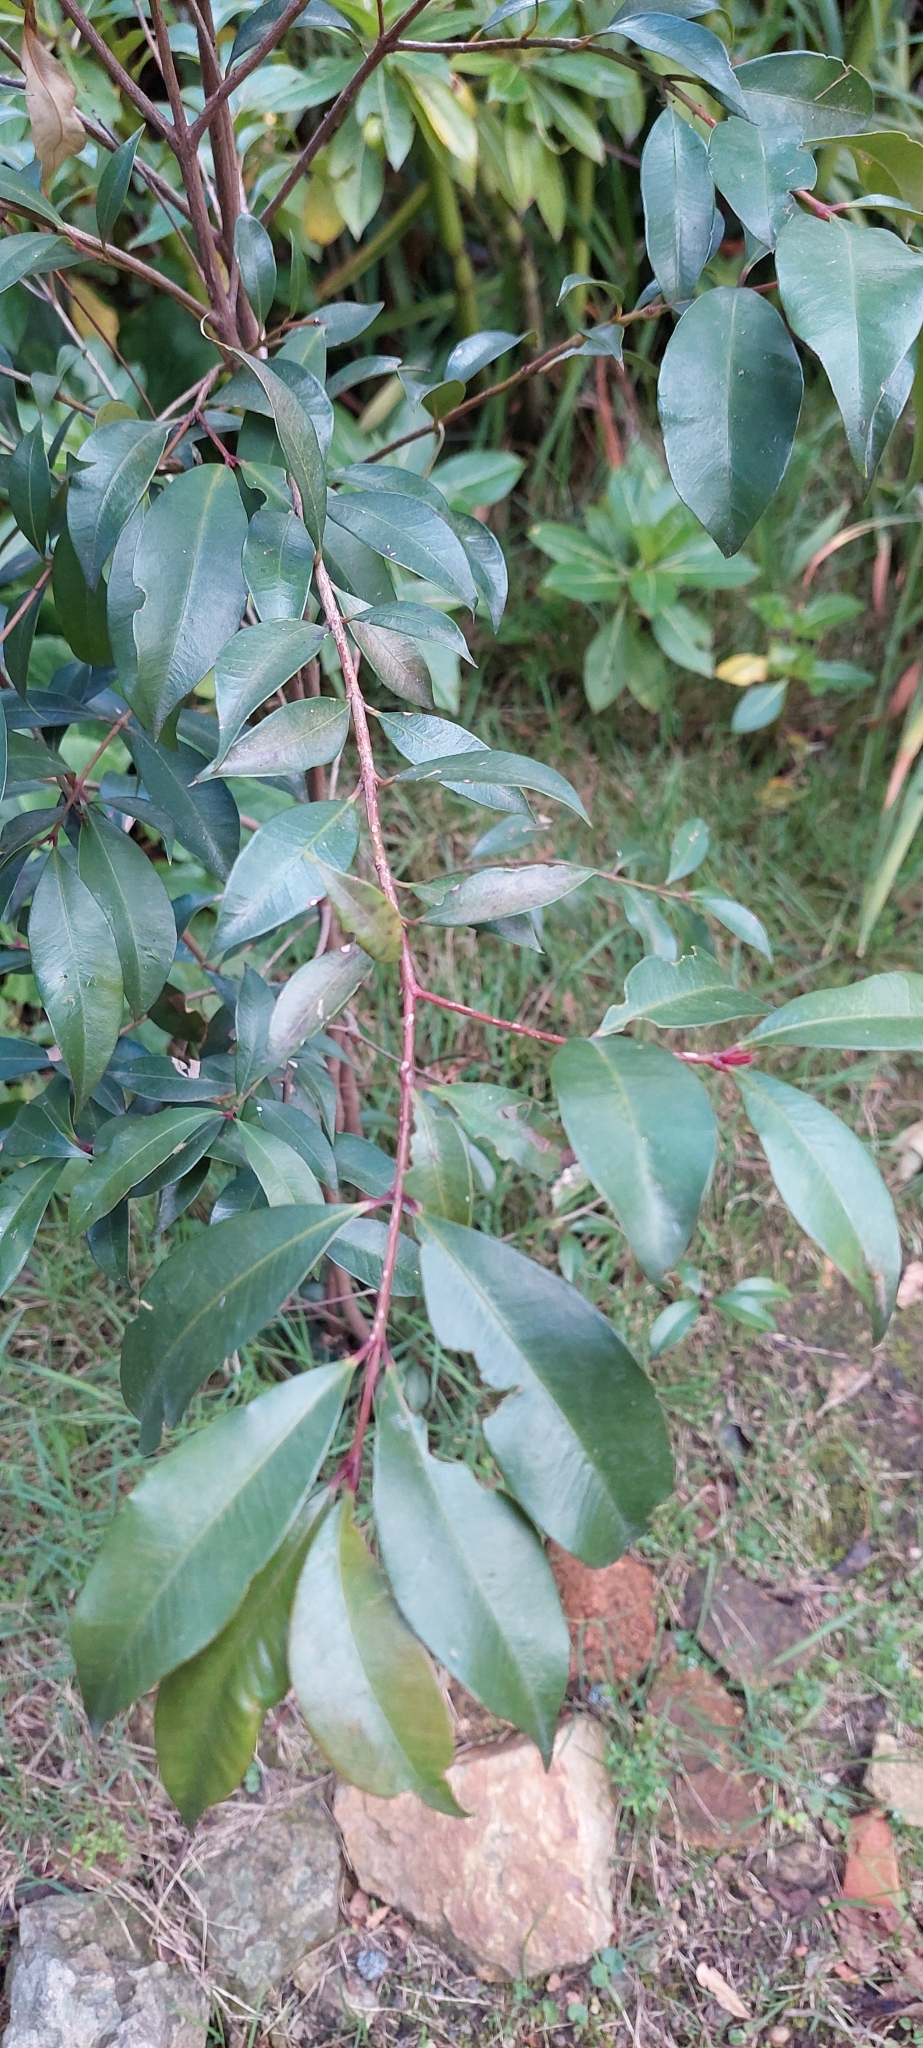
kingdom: Plantae
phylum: Tracheophyta
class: Magnoliopsida
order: Myrtales
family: Myrtaceae
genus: Syzygium
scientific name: Syzygium paniculatum
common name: Magenta lilly-pilly
